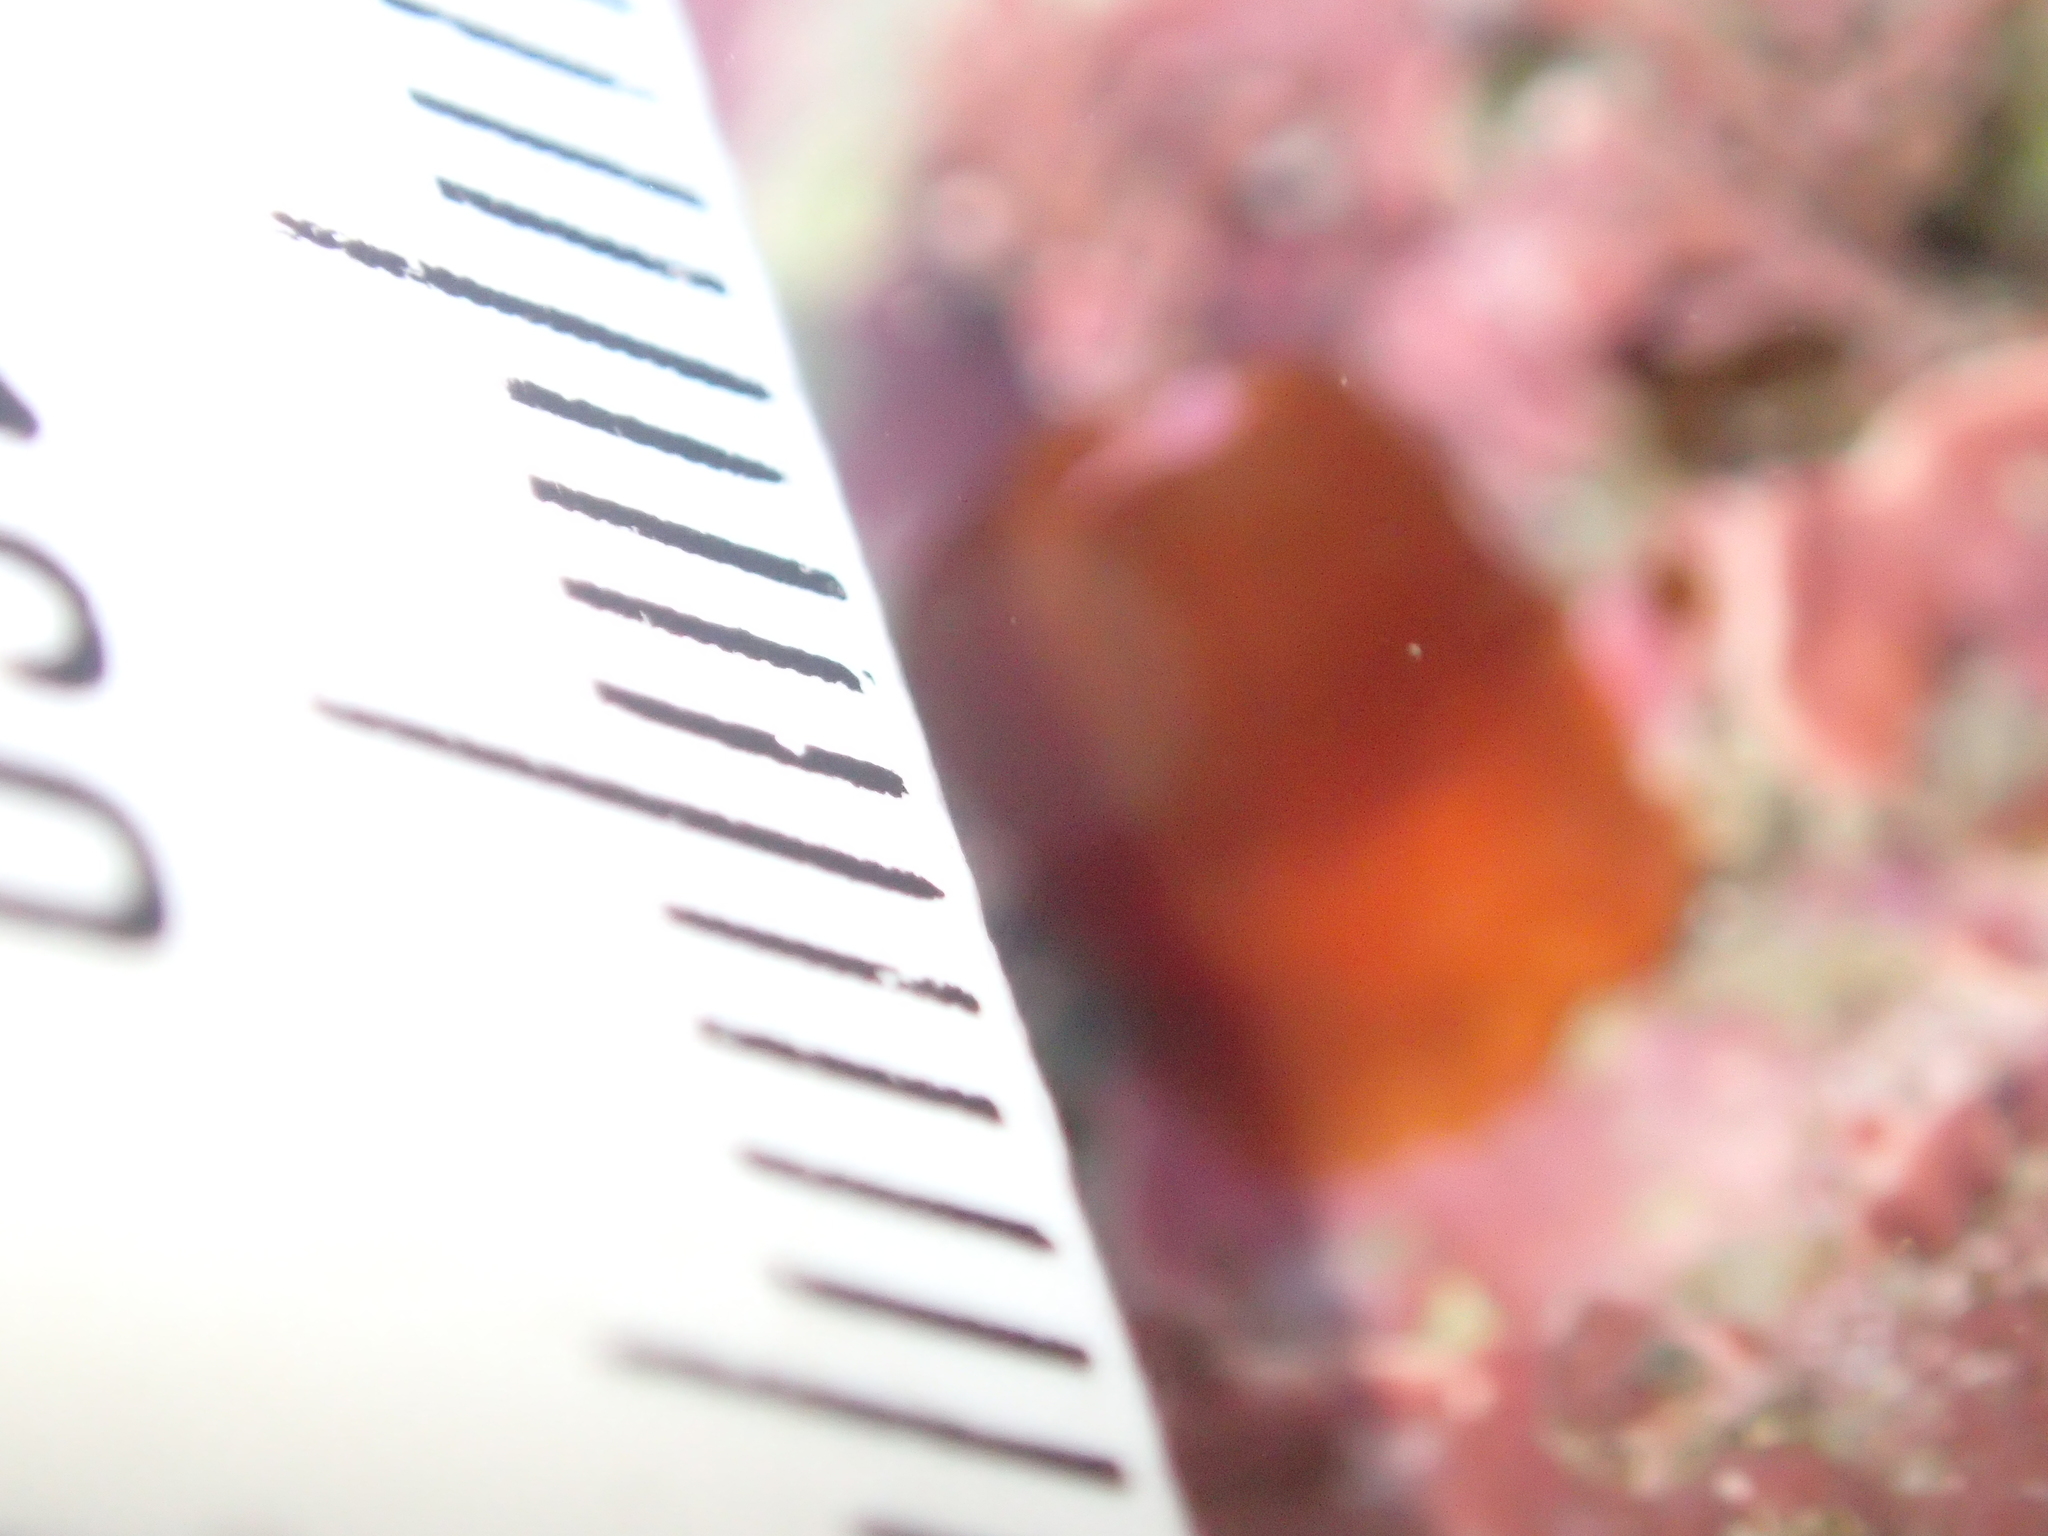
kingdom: Animalia
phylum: Cnidaria
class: Anthozoa
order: Corallimorpharia
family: Corallimorphidae
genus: Corynactis
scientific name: Corynactis australis
